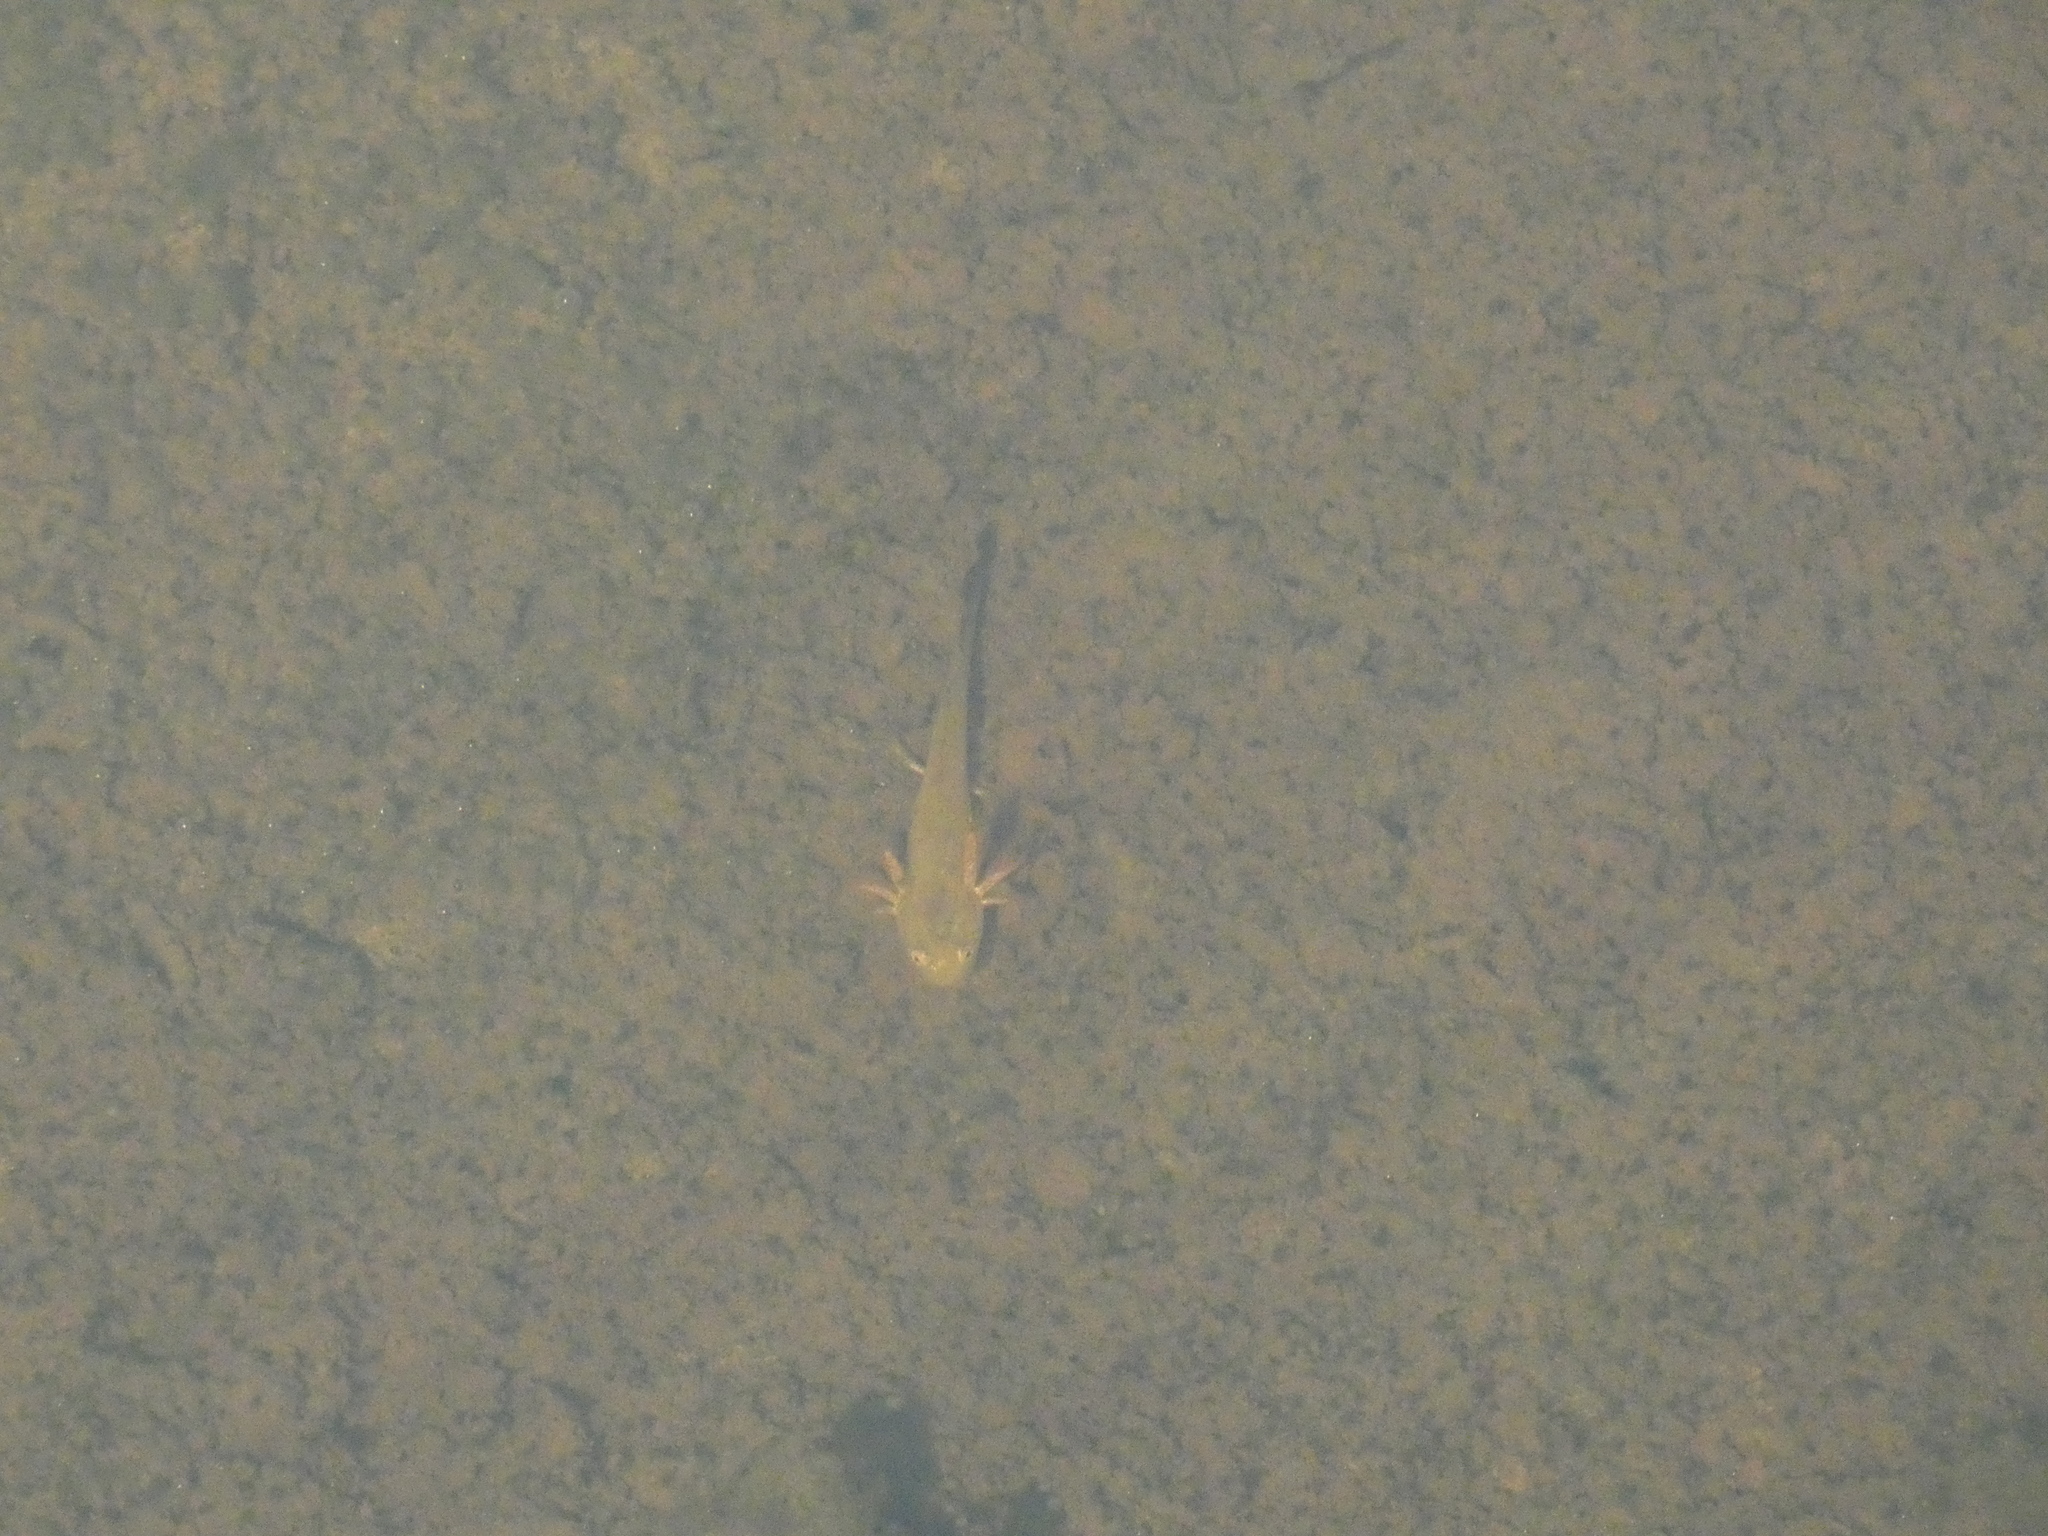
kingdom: Animalia
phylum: Chordata
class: Amphibia
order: Caudata
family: Salamandridae
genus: Ichthyosaura
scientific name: Ichthyosaura alpestris
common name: Alpine newt
